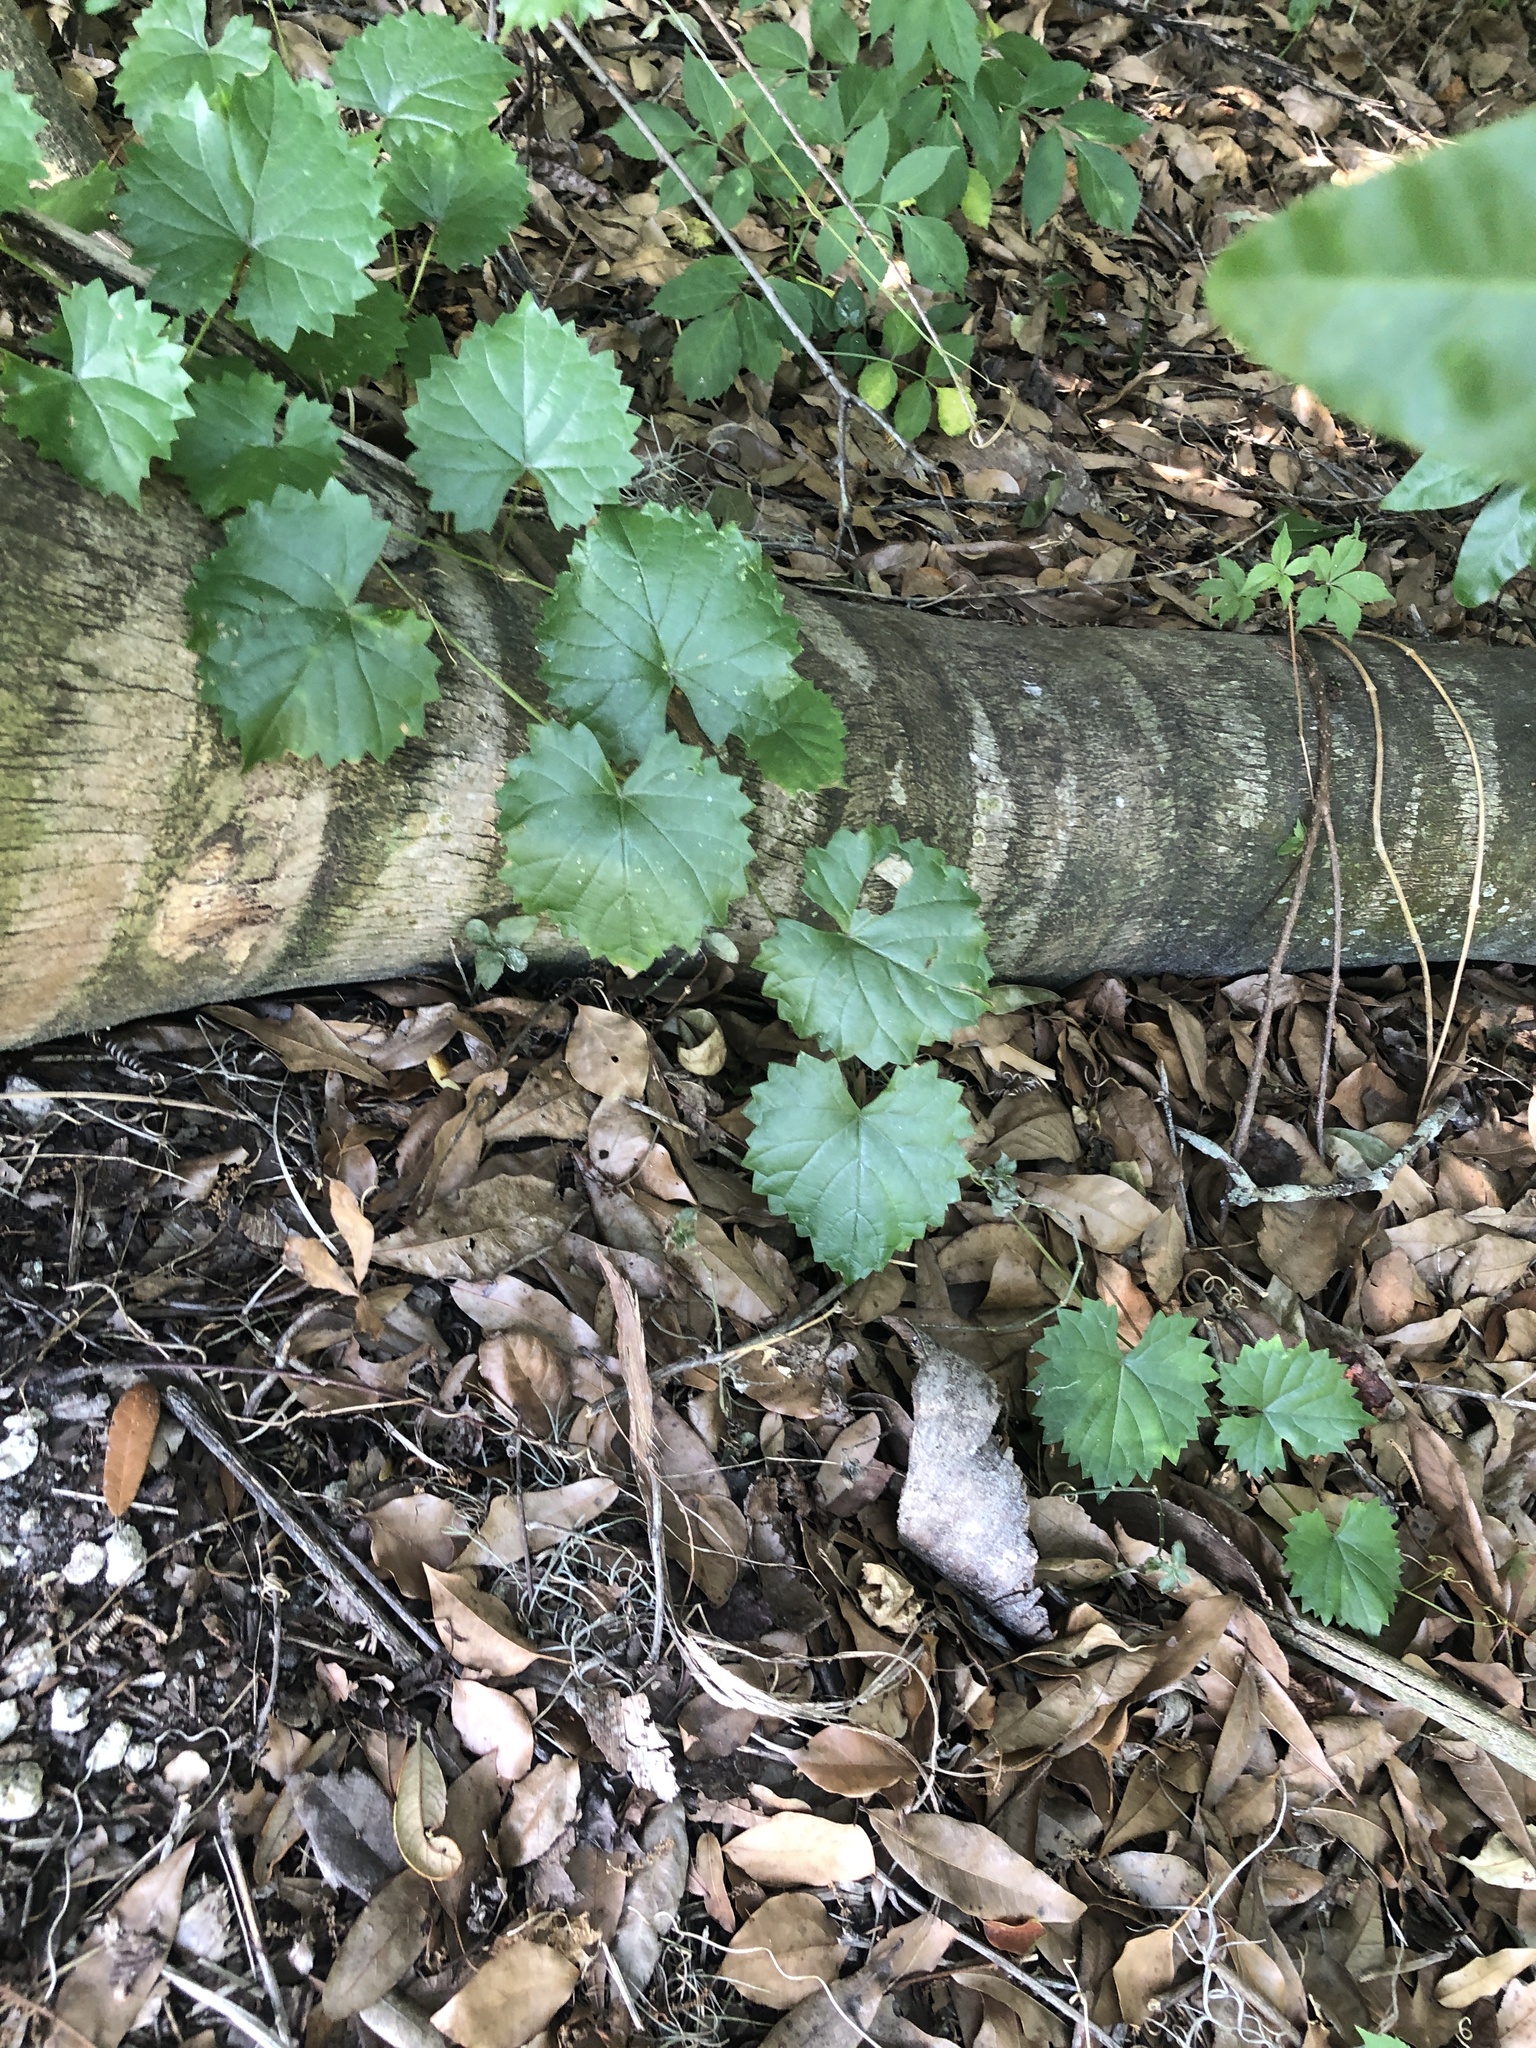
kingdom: Plantae
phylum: Tracheophyta
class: Magnoliopsida
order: Vitales
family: Vitaceae
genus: Vitis
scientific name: Vitis rotundifolia
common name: Muscadine grape
